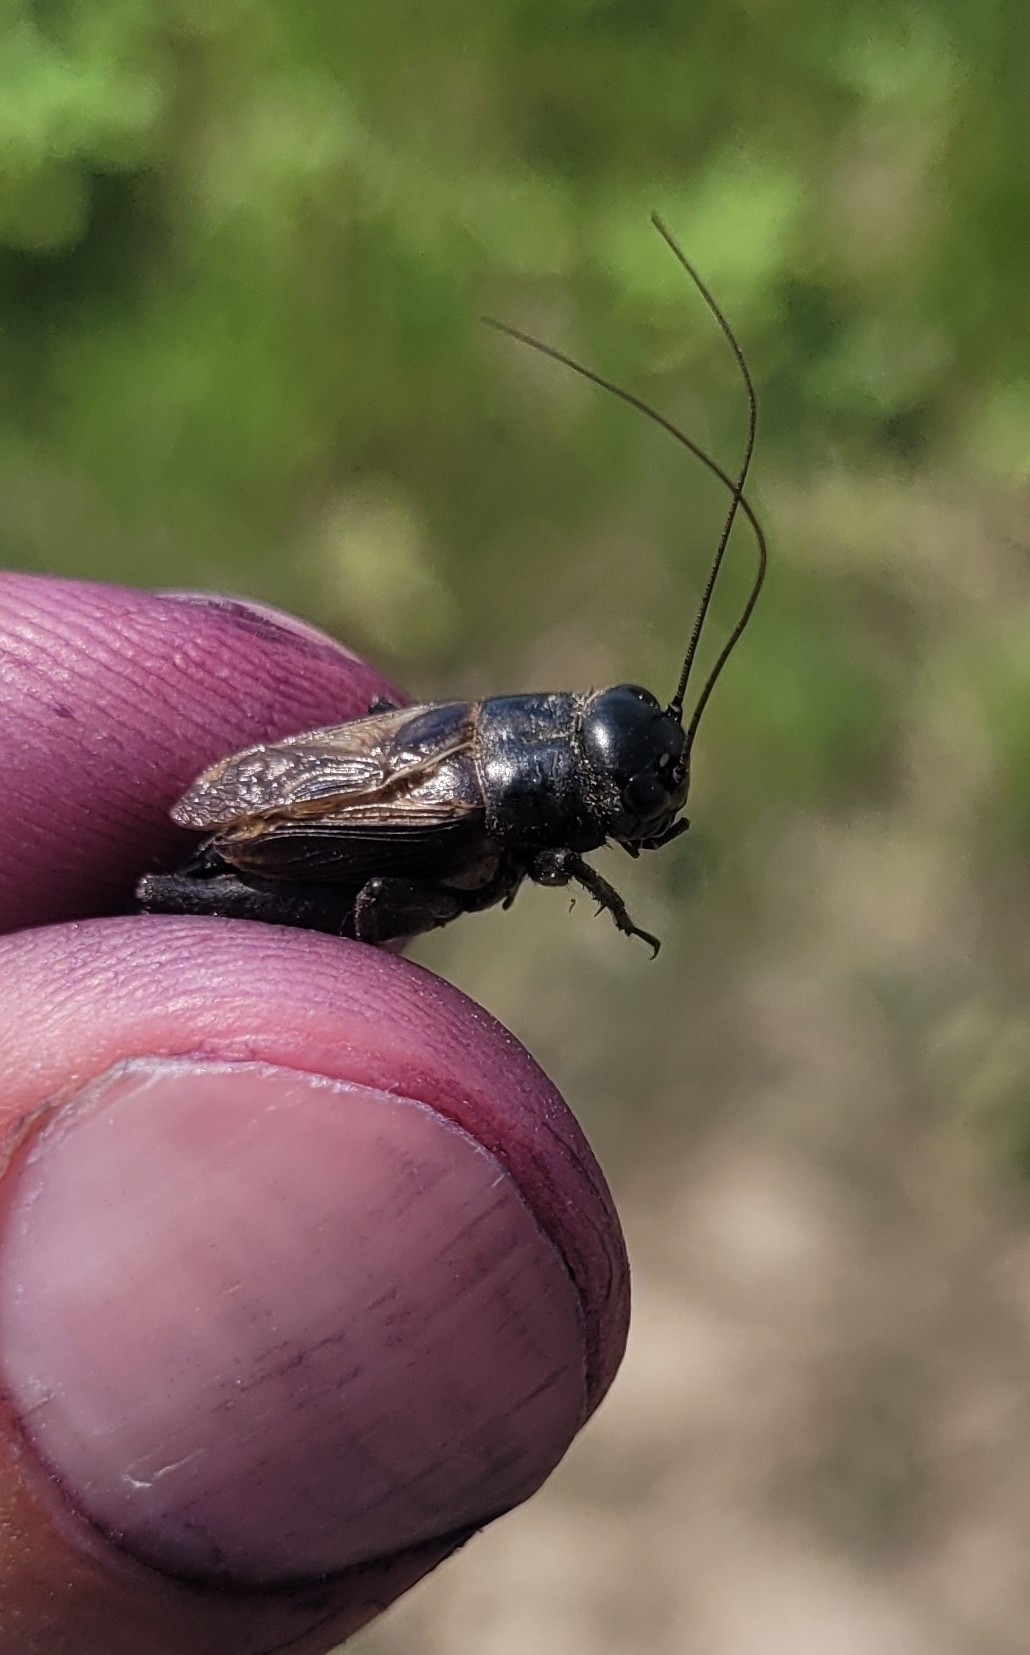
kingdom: Animalia
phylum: Arthropoda
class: Insecta
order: Orthoptera
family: Gryllidae
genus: Melanogryllus
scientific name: Melanogryllus desertus
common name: Desert cricket
